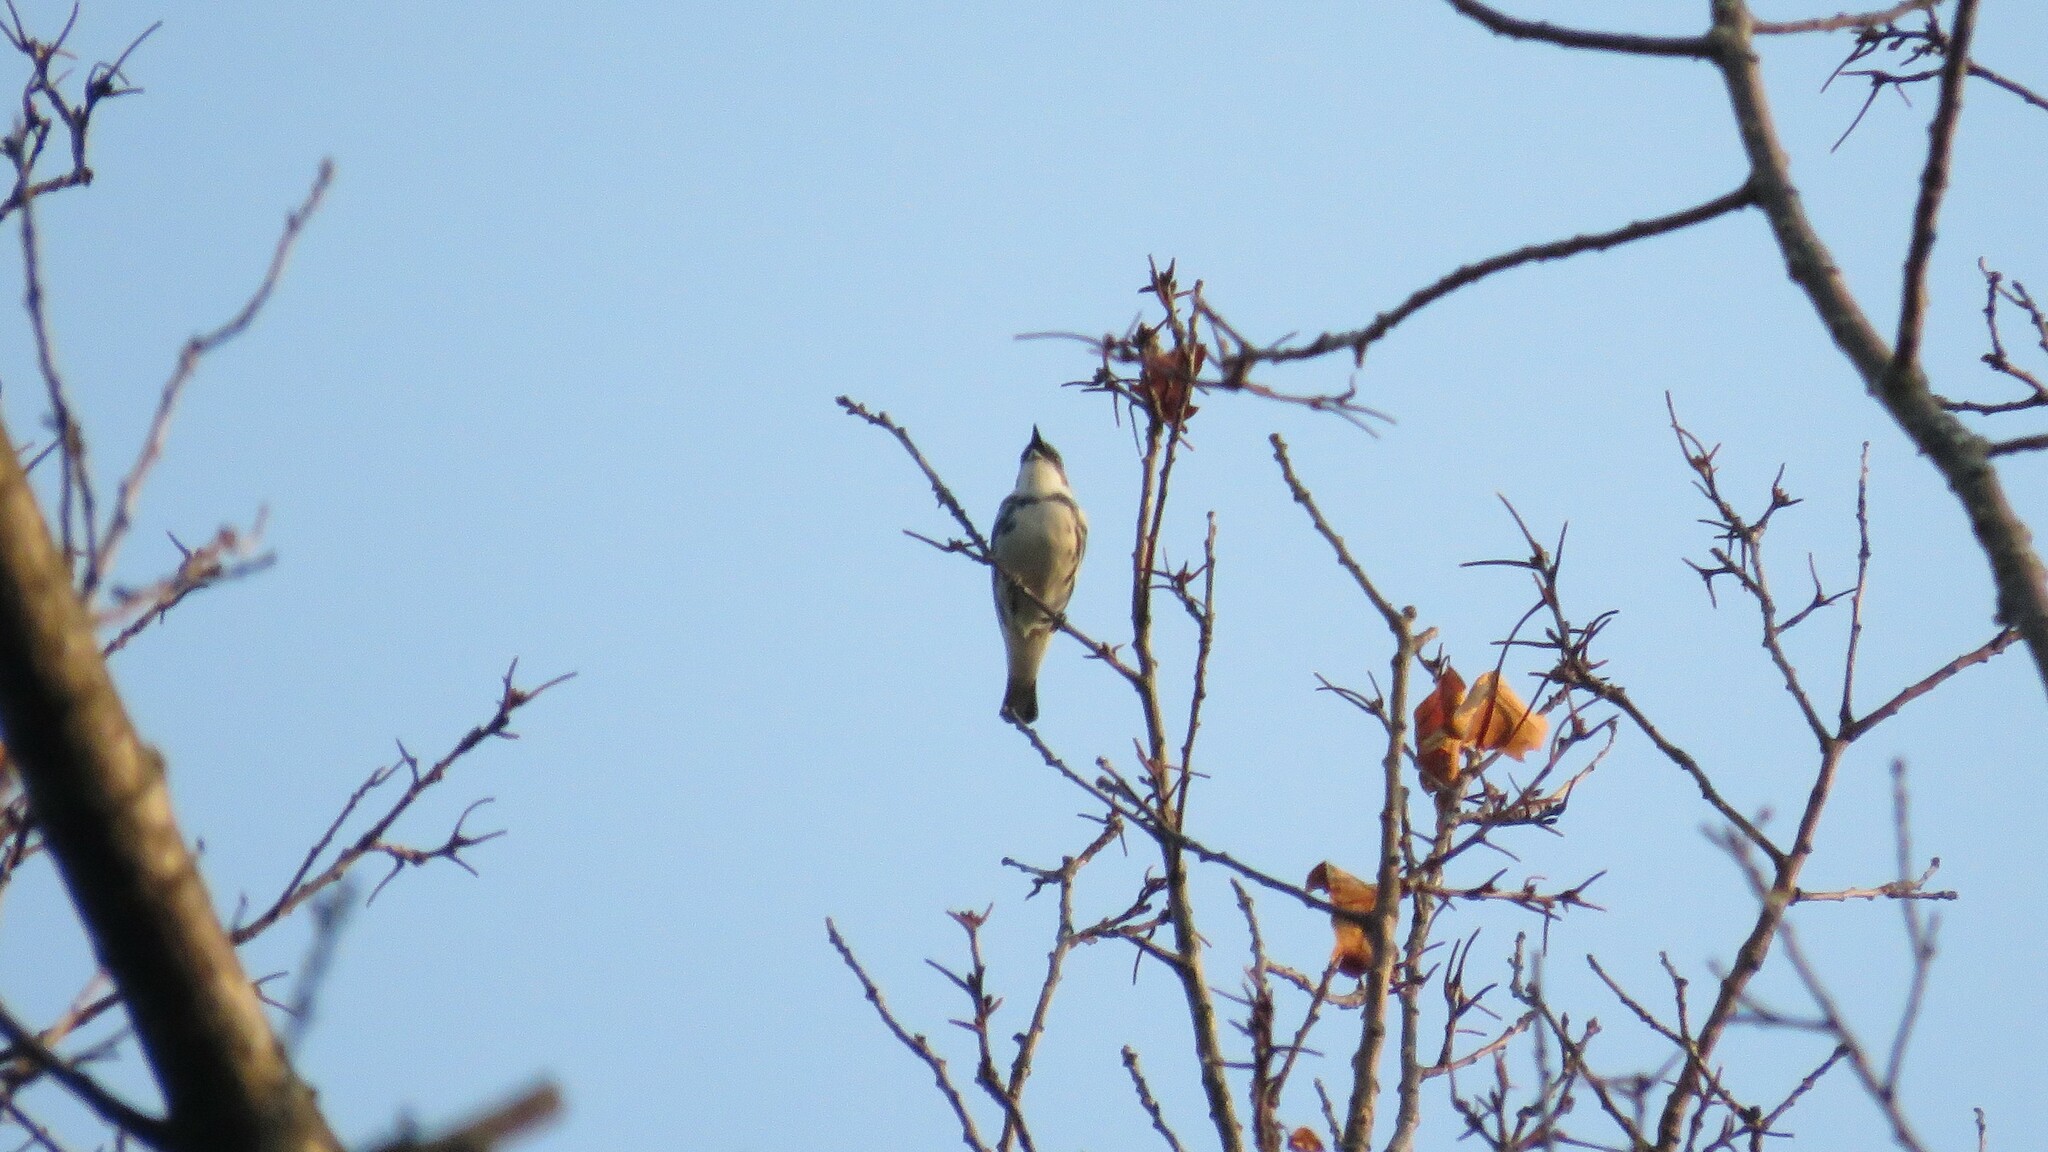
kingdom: Animalia
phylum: Chordata
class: Aves
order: Passeriformes
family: Parulidae
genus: Setophaga
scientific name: Setophaga cerulea
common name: Cerulean warbler
